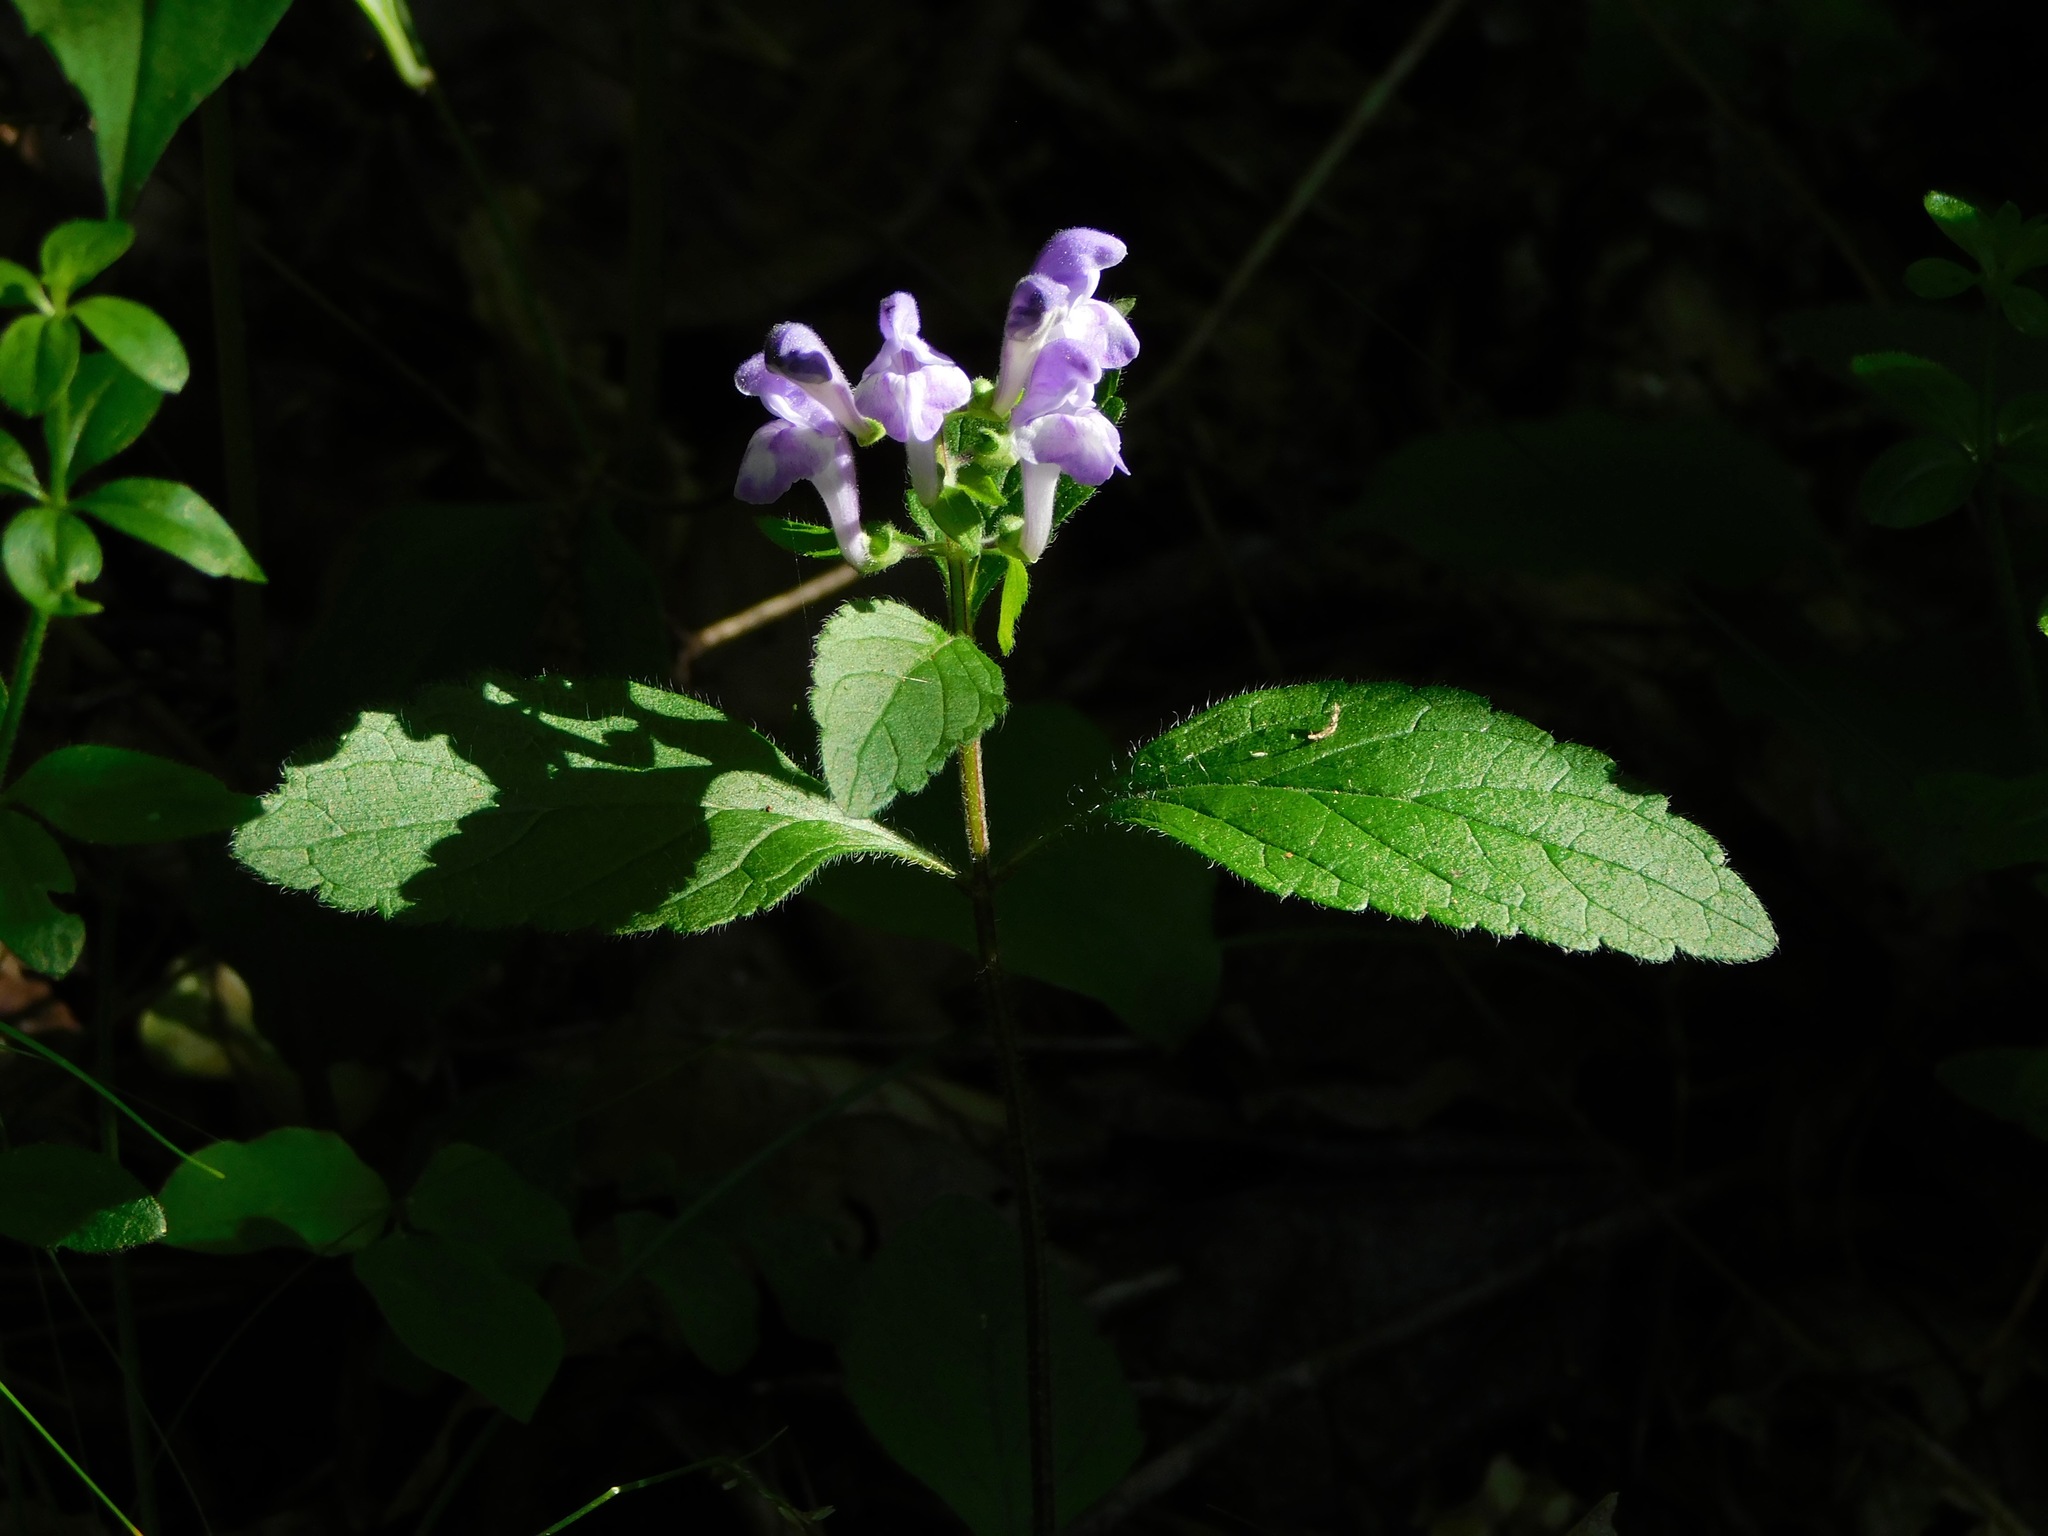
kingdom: Plantae
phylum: Tracheophyta
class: Magnoliopsida
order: Lamiales
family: Lamiaceae
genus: Scutellaria
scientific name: Scutellaria elliptica
